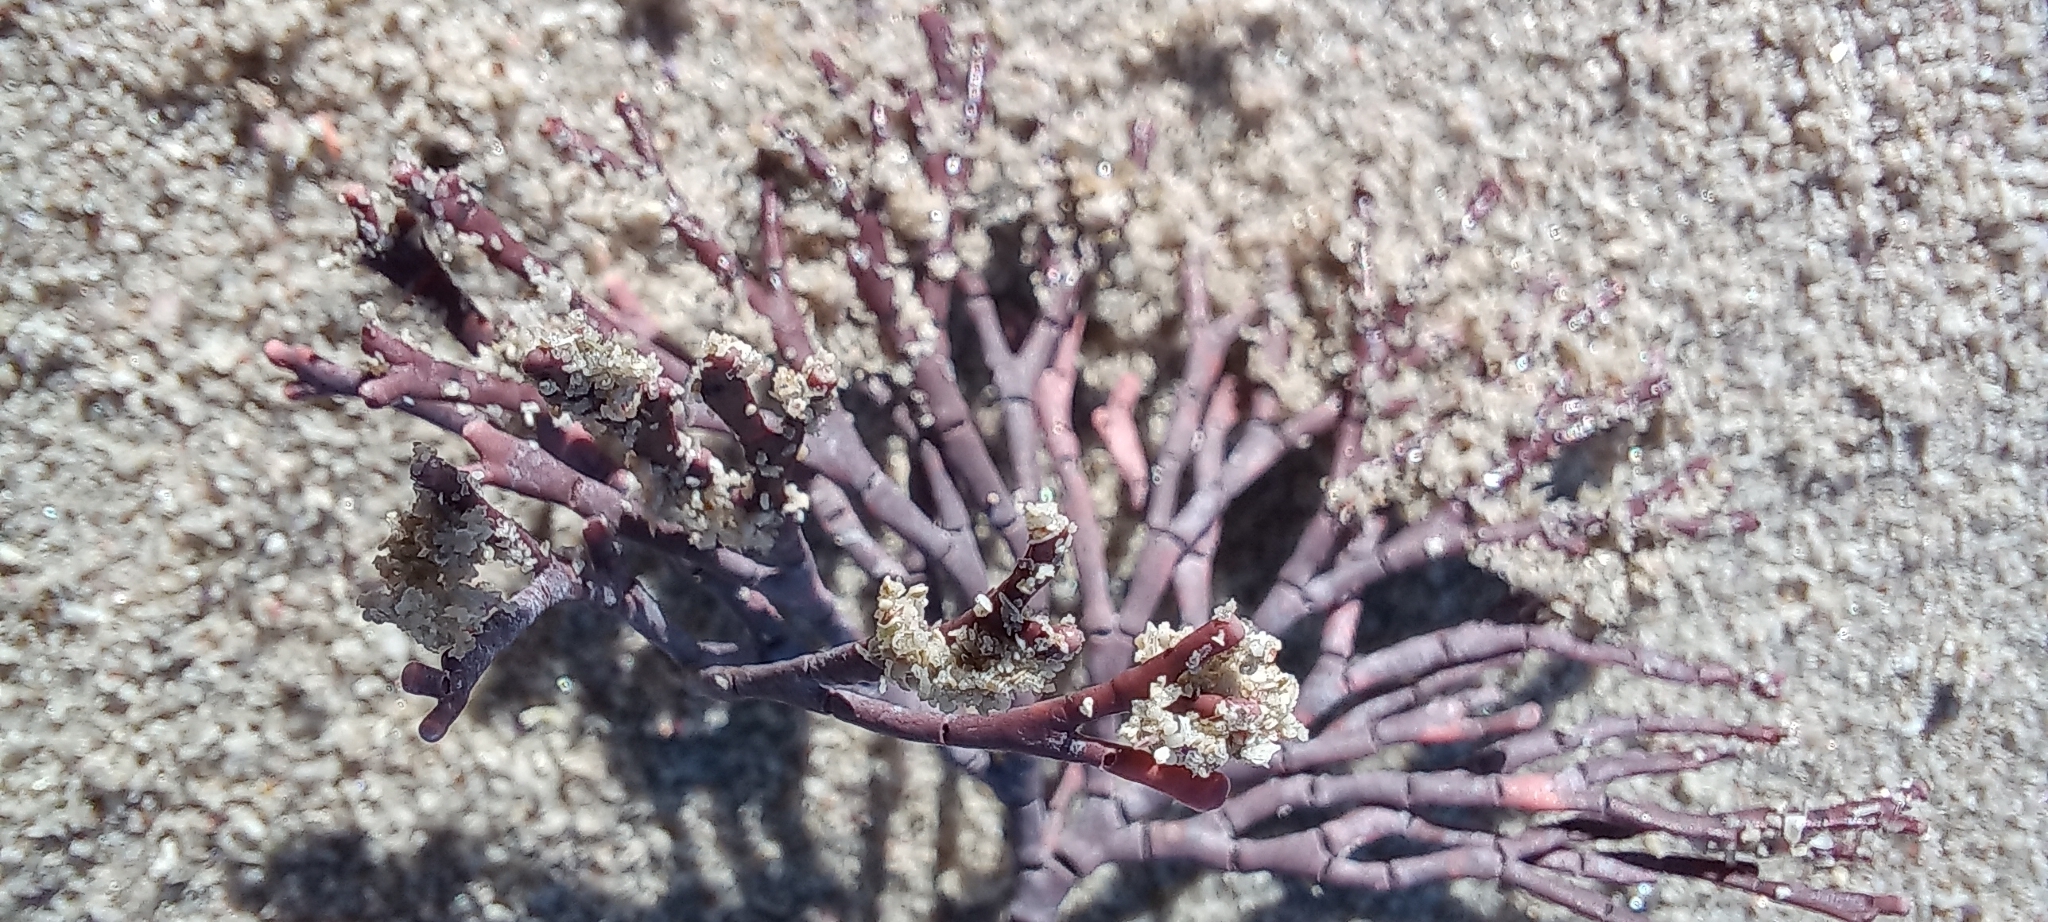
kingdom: Plantae
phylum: Rhodophyta
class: Florideophyceae
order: Corallinales
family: Corallinaceae
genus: Corallina
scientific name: Corallina officinalis
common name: Coral weed
